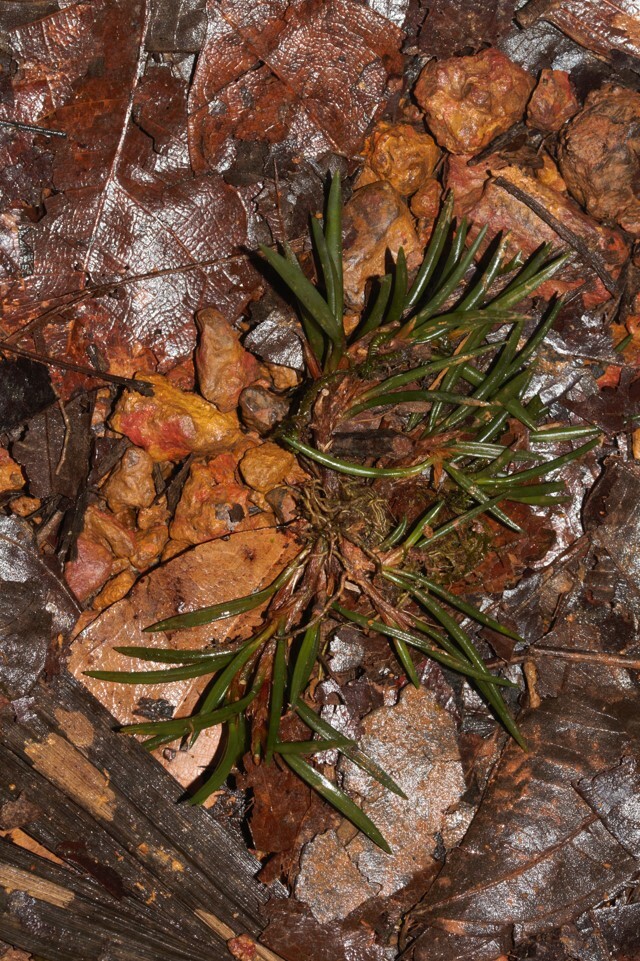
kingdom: Plantae
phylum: Tracheophyta
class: Liliopsida
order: Asparagales
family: Orchidaceae
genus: Maxillaria
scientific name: Maxillaria uncata
